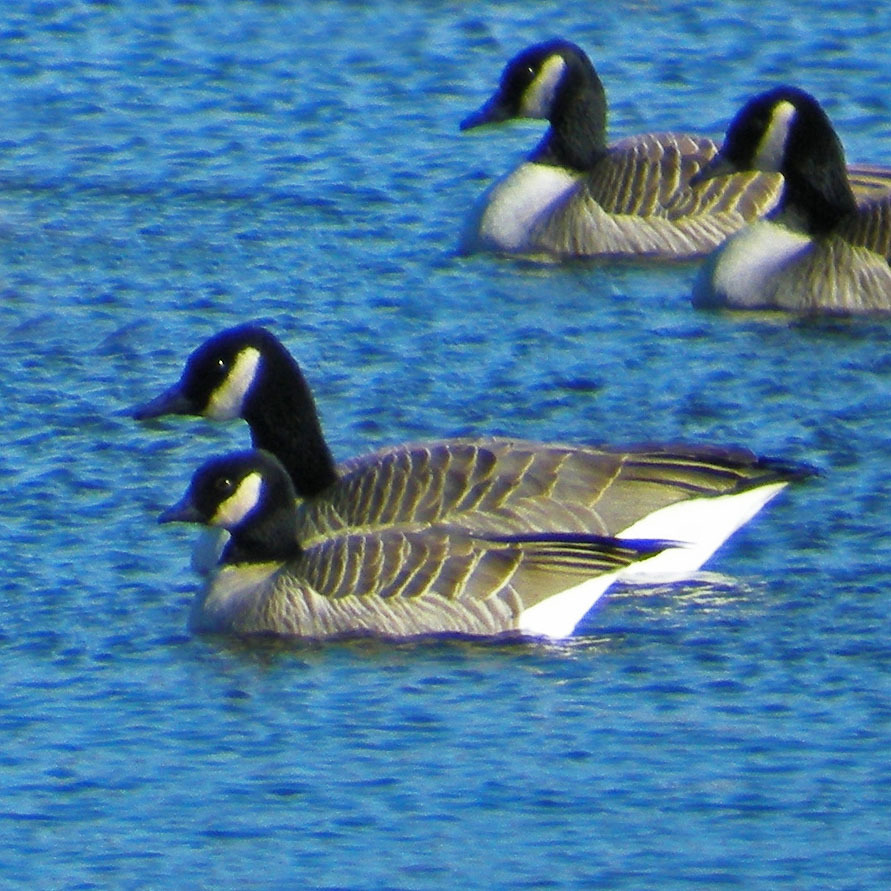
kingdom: Animalia
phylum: Chordata
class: Aves
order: Anseriformes
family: Anatidae
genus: Branta
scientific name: Branta hutchinsii
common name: Cackling goose
